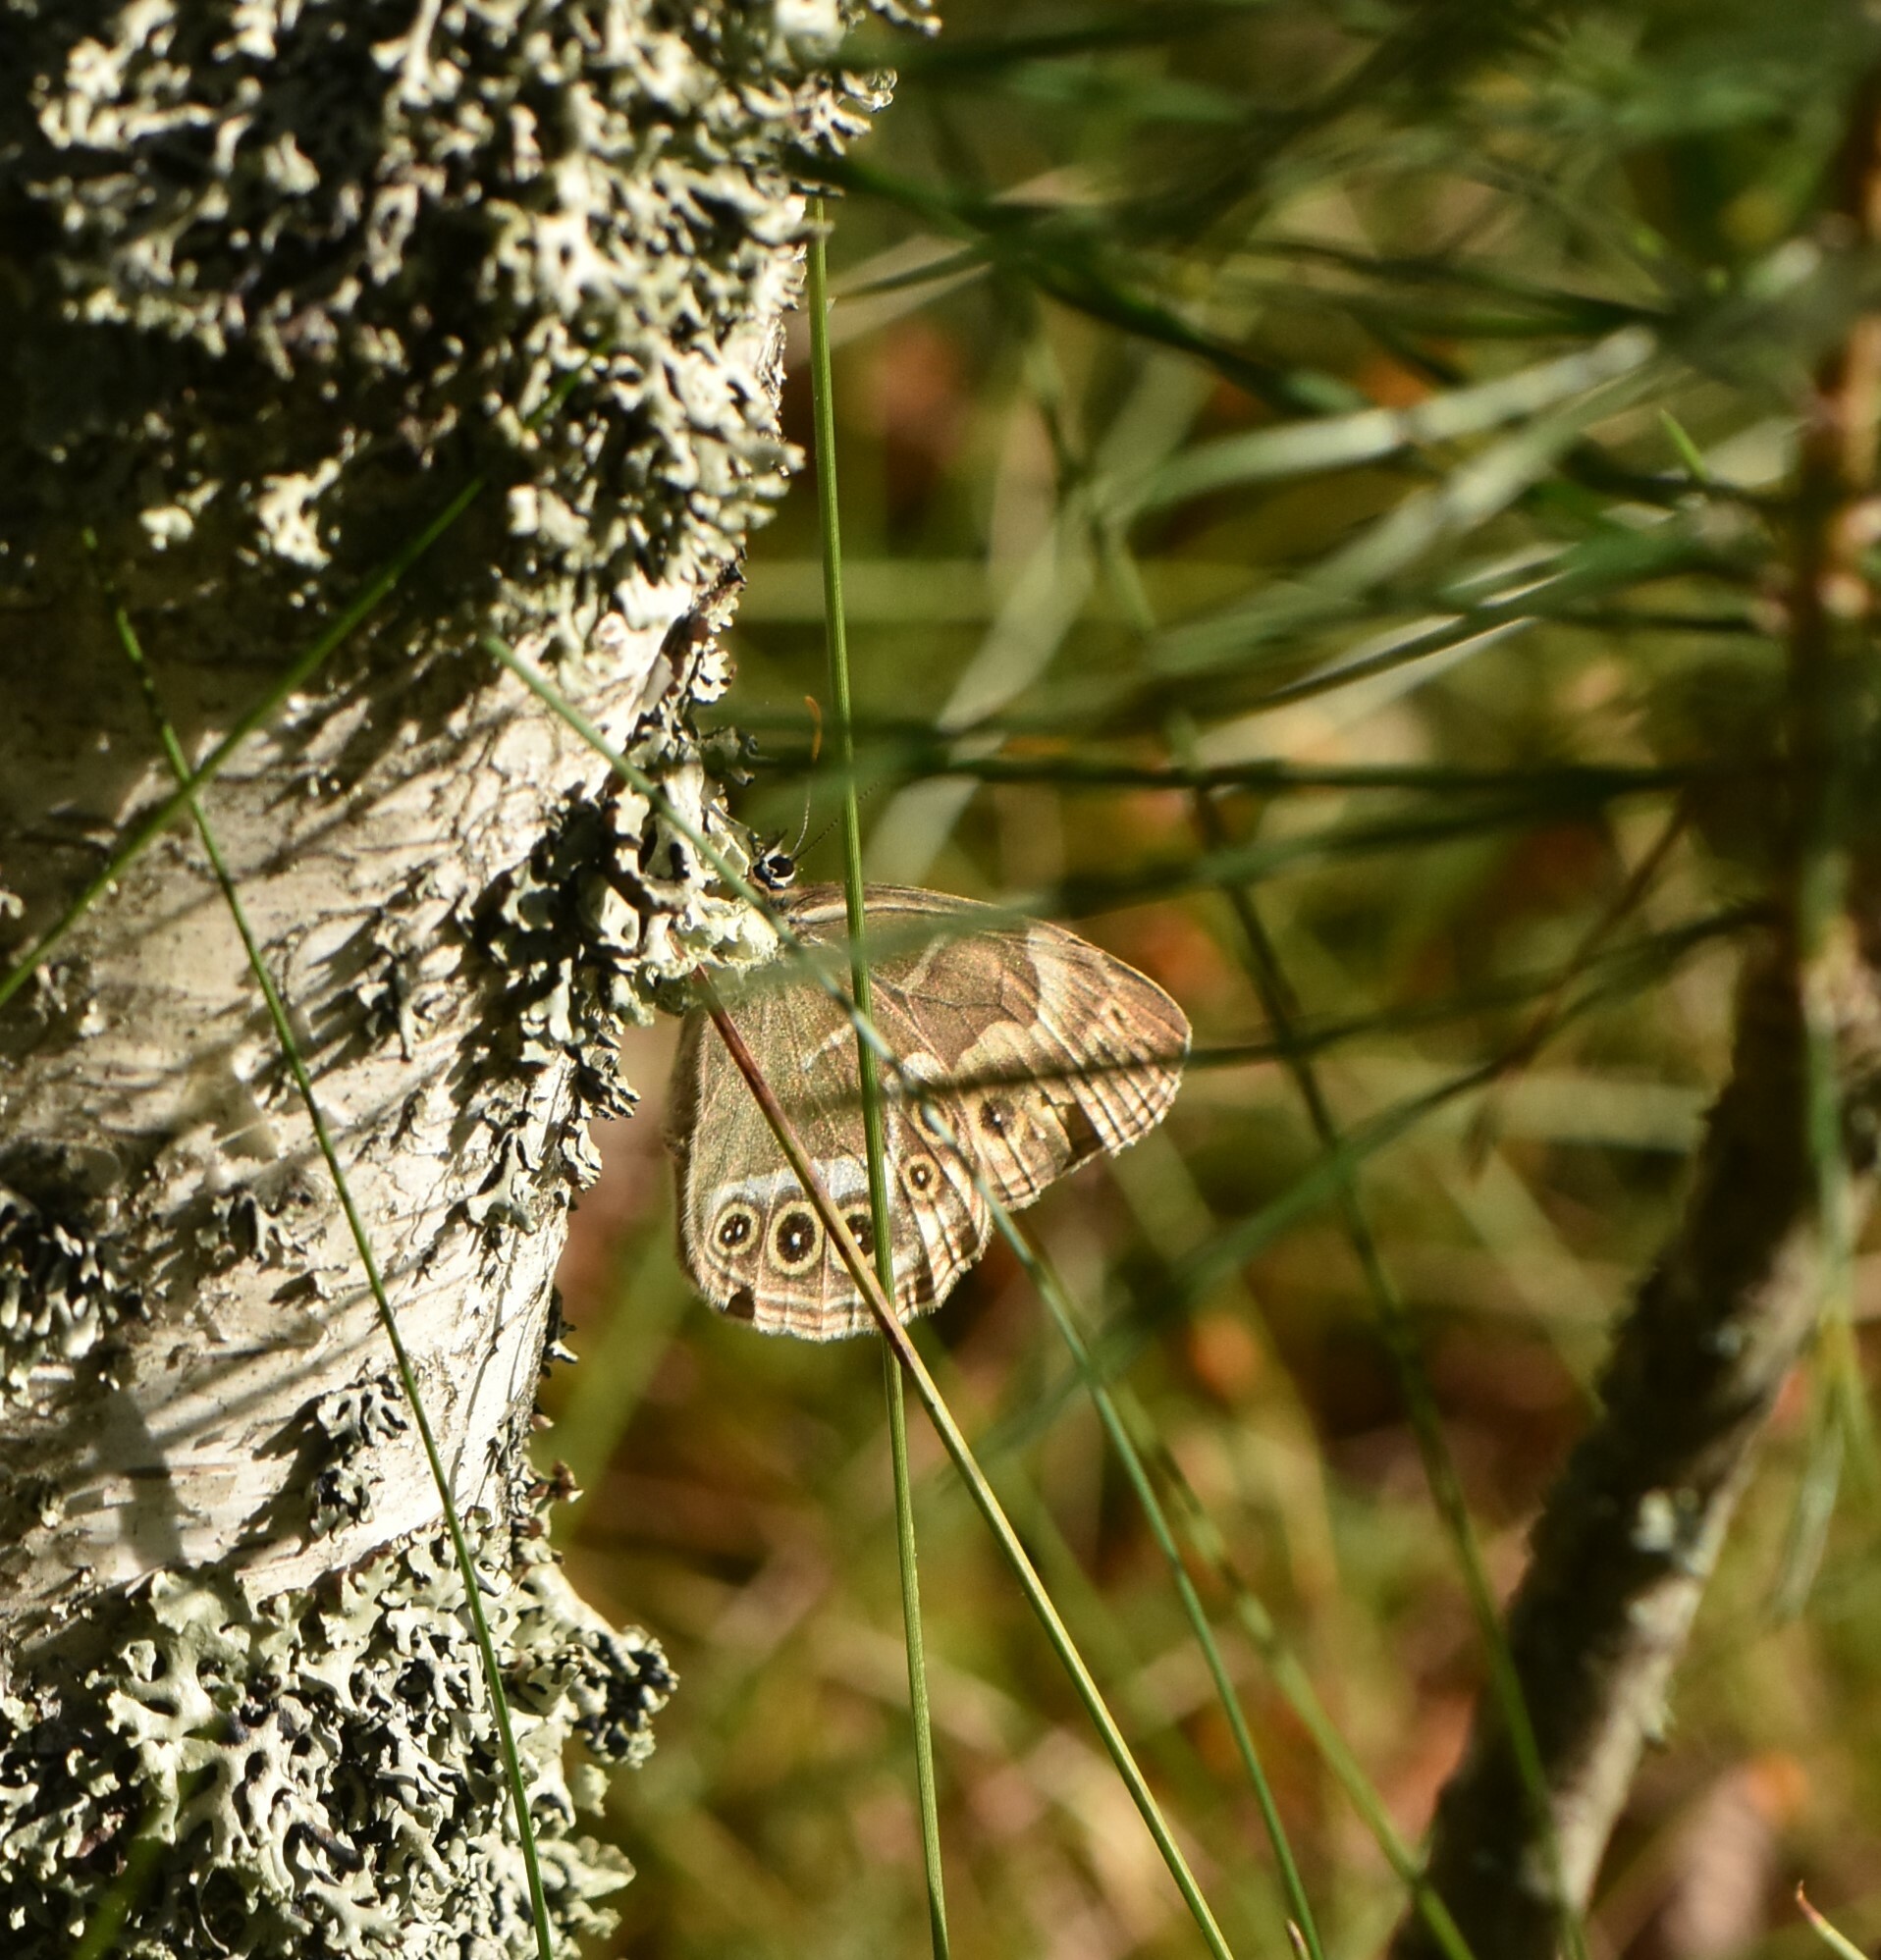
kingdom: Animalia
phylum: Arthropoda
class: Insecta
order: Lepidoptera
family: Nymphalidae
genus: Pararge
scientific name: Pararge Lopinga achine
